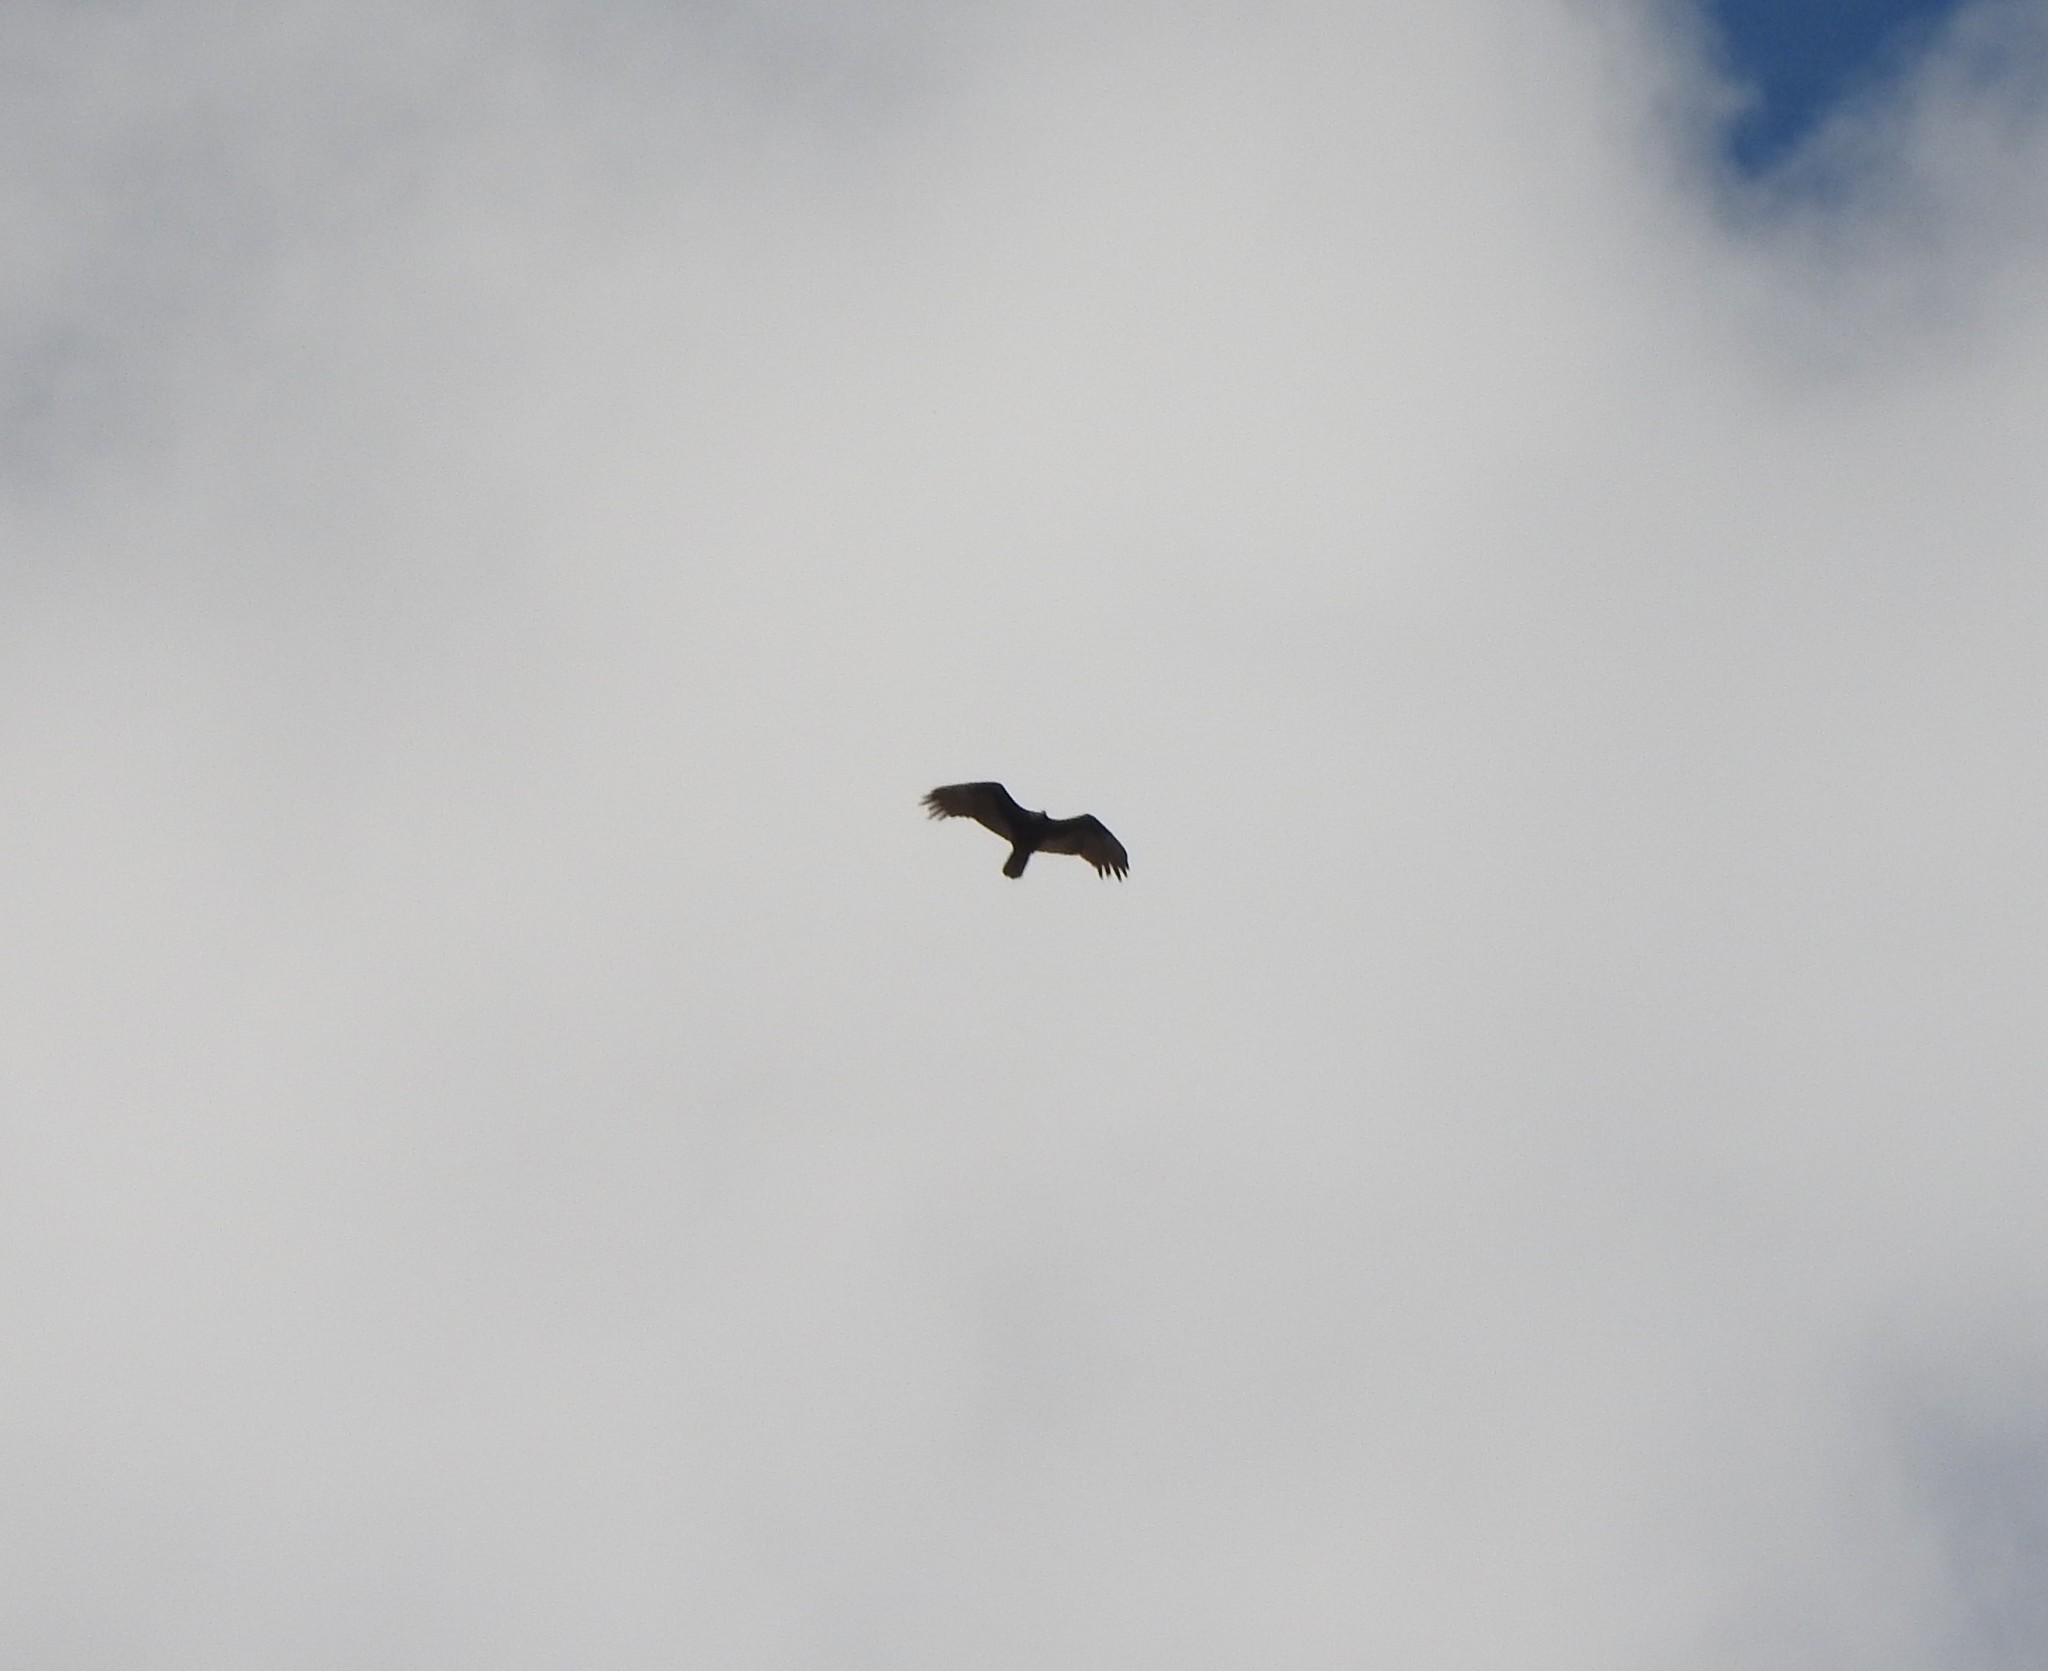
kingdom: Animalia
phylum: Chordata
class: Aves
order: Accipitriformes
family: Cathartidae
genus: Cathartes
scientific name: Cathartes aura
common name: Turkey vulture
